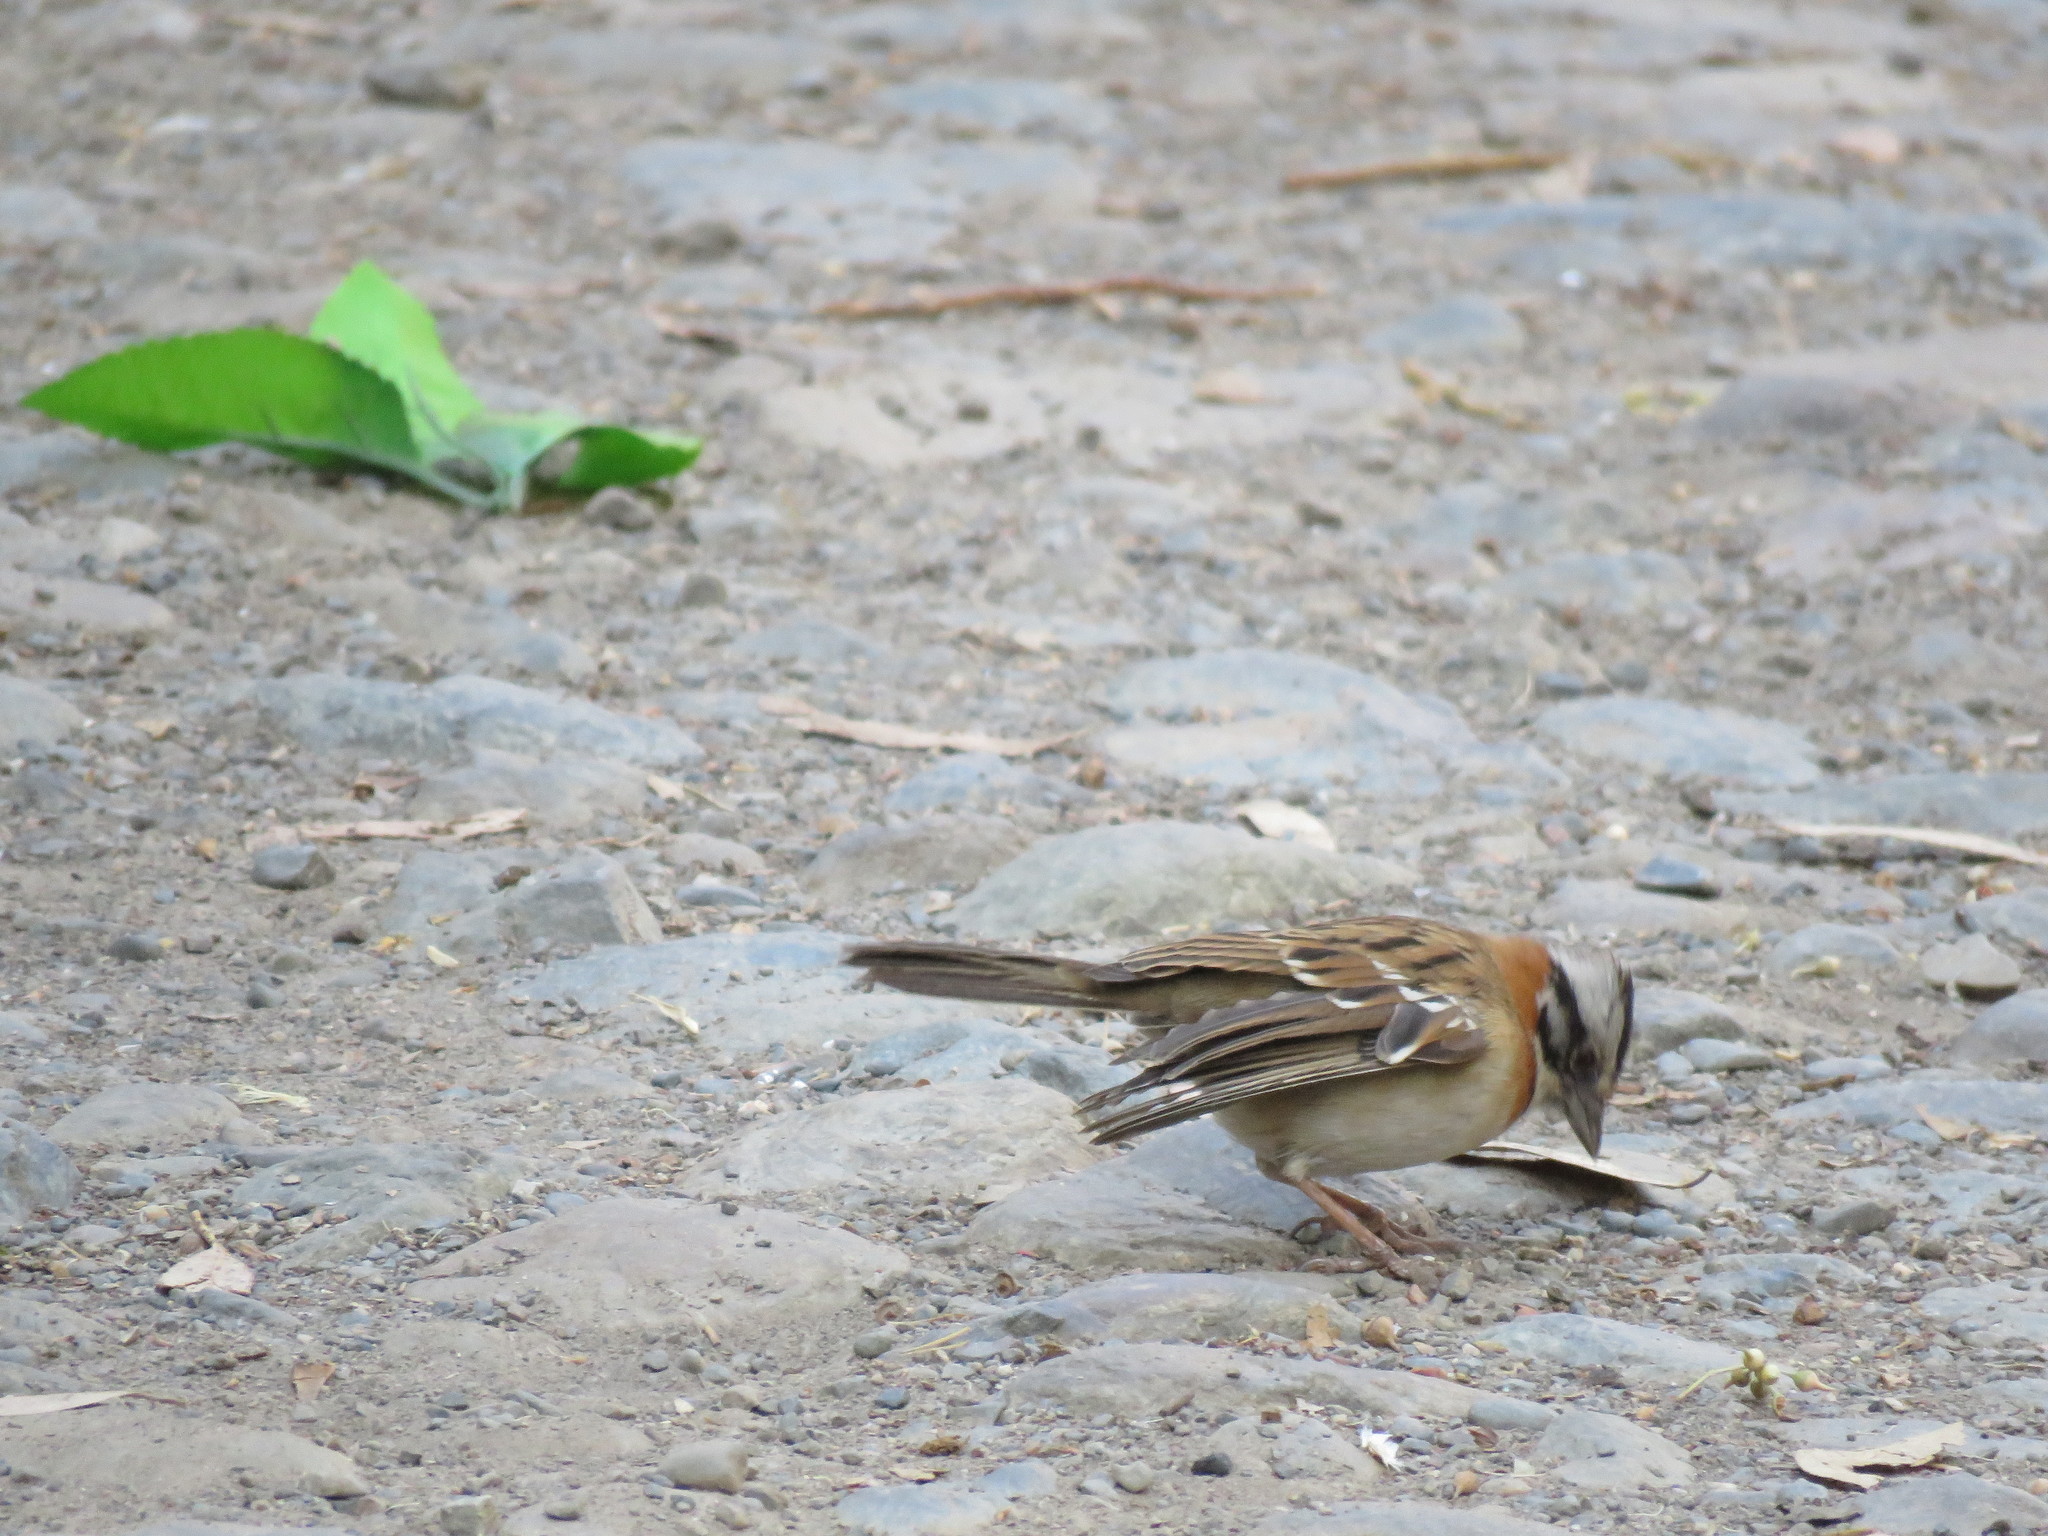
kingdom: Animalia
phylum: Chordata
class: Aves
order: Passeriformes
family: Passerellidae
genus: Zonotrichia
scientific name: Zonotrichia capensis
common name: Rufous-collared sparrow
